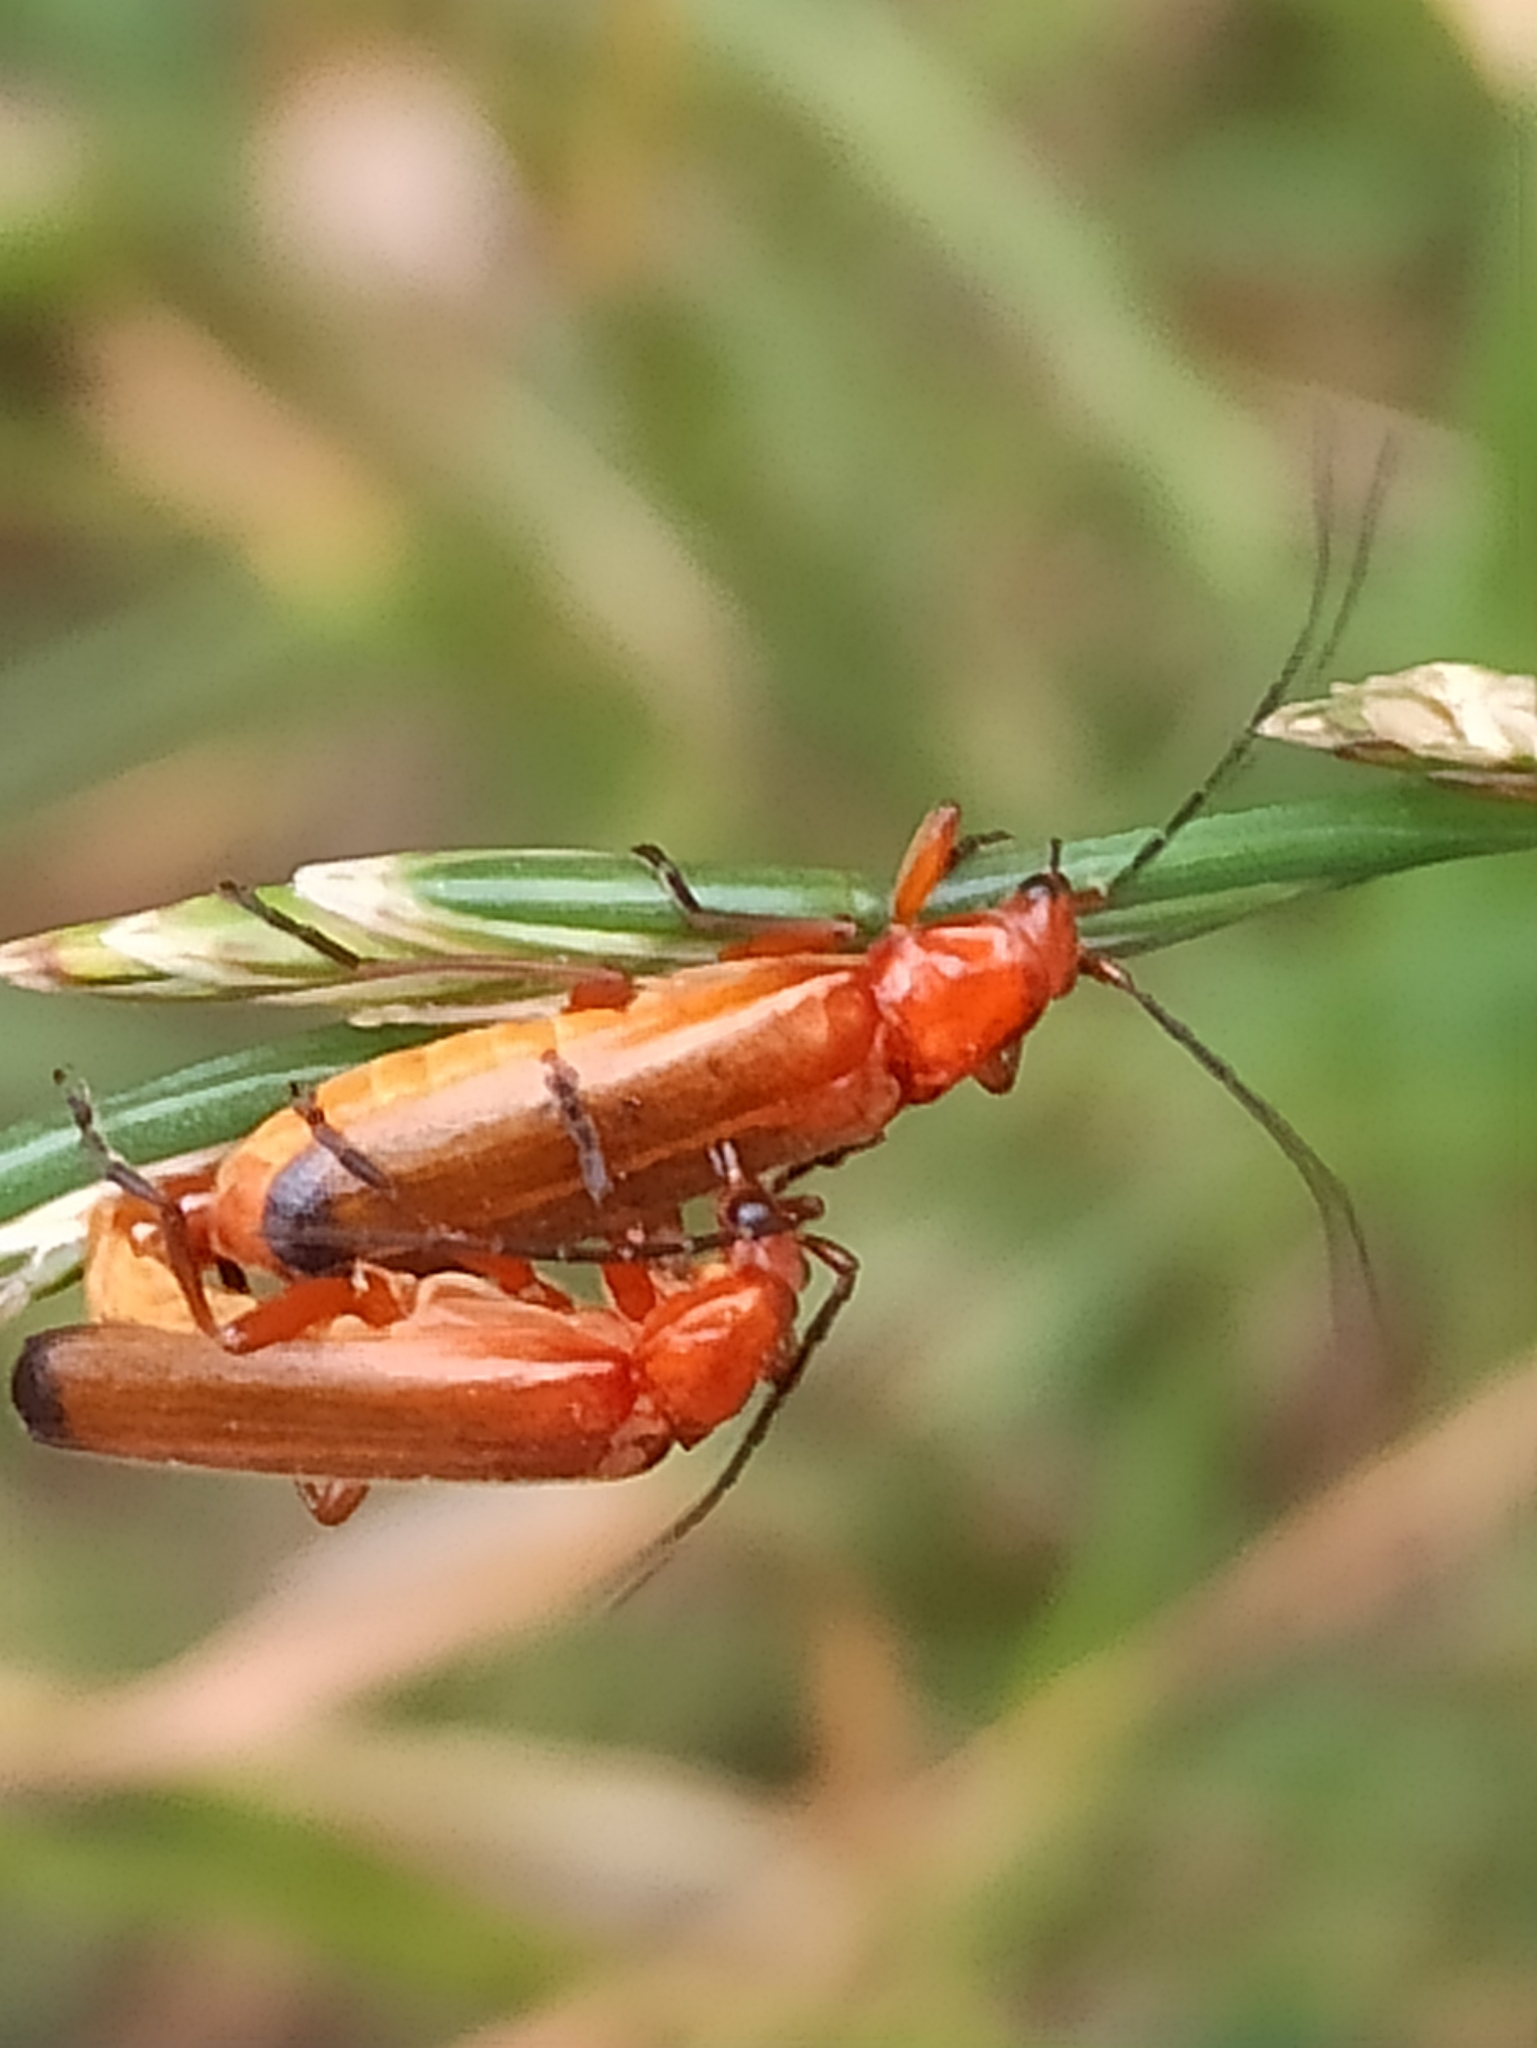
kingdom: Animalia
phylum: Arthropoda
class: Insecta
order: Coleoptera
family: Cantharidae
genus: Rhagonycha
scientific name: Rhagonycha fulva
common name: Common red soldier beetle
